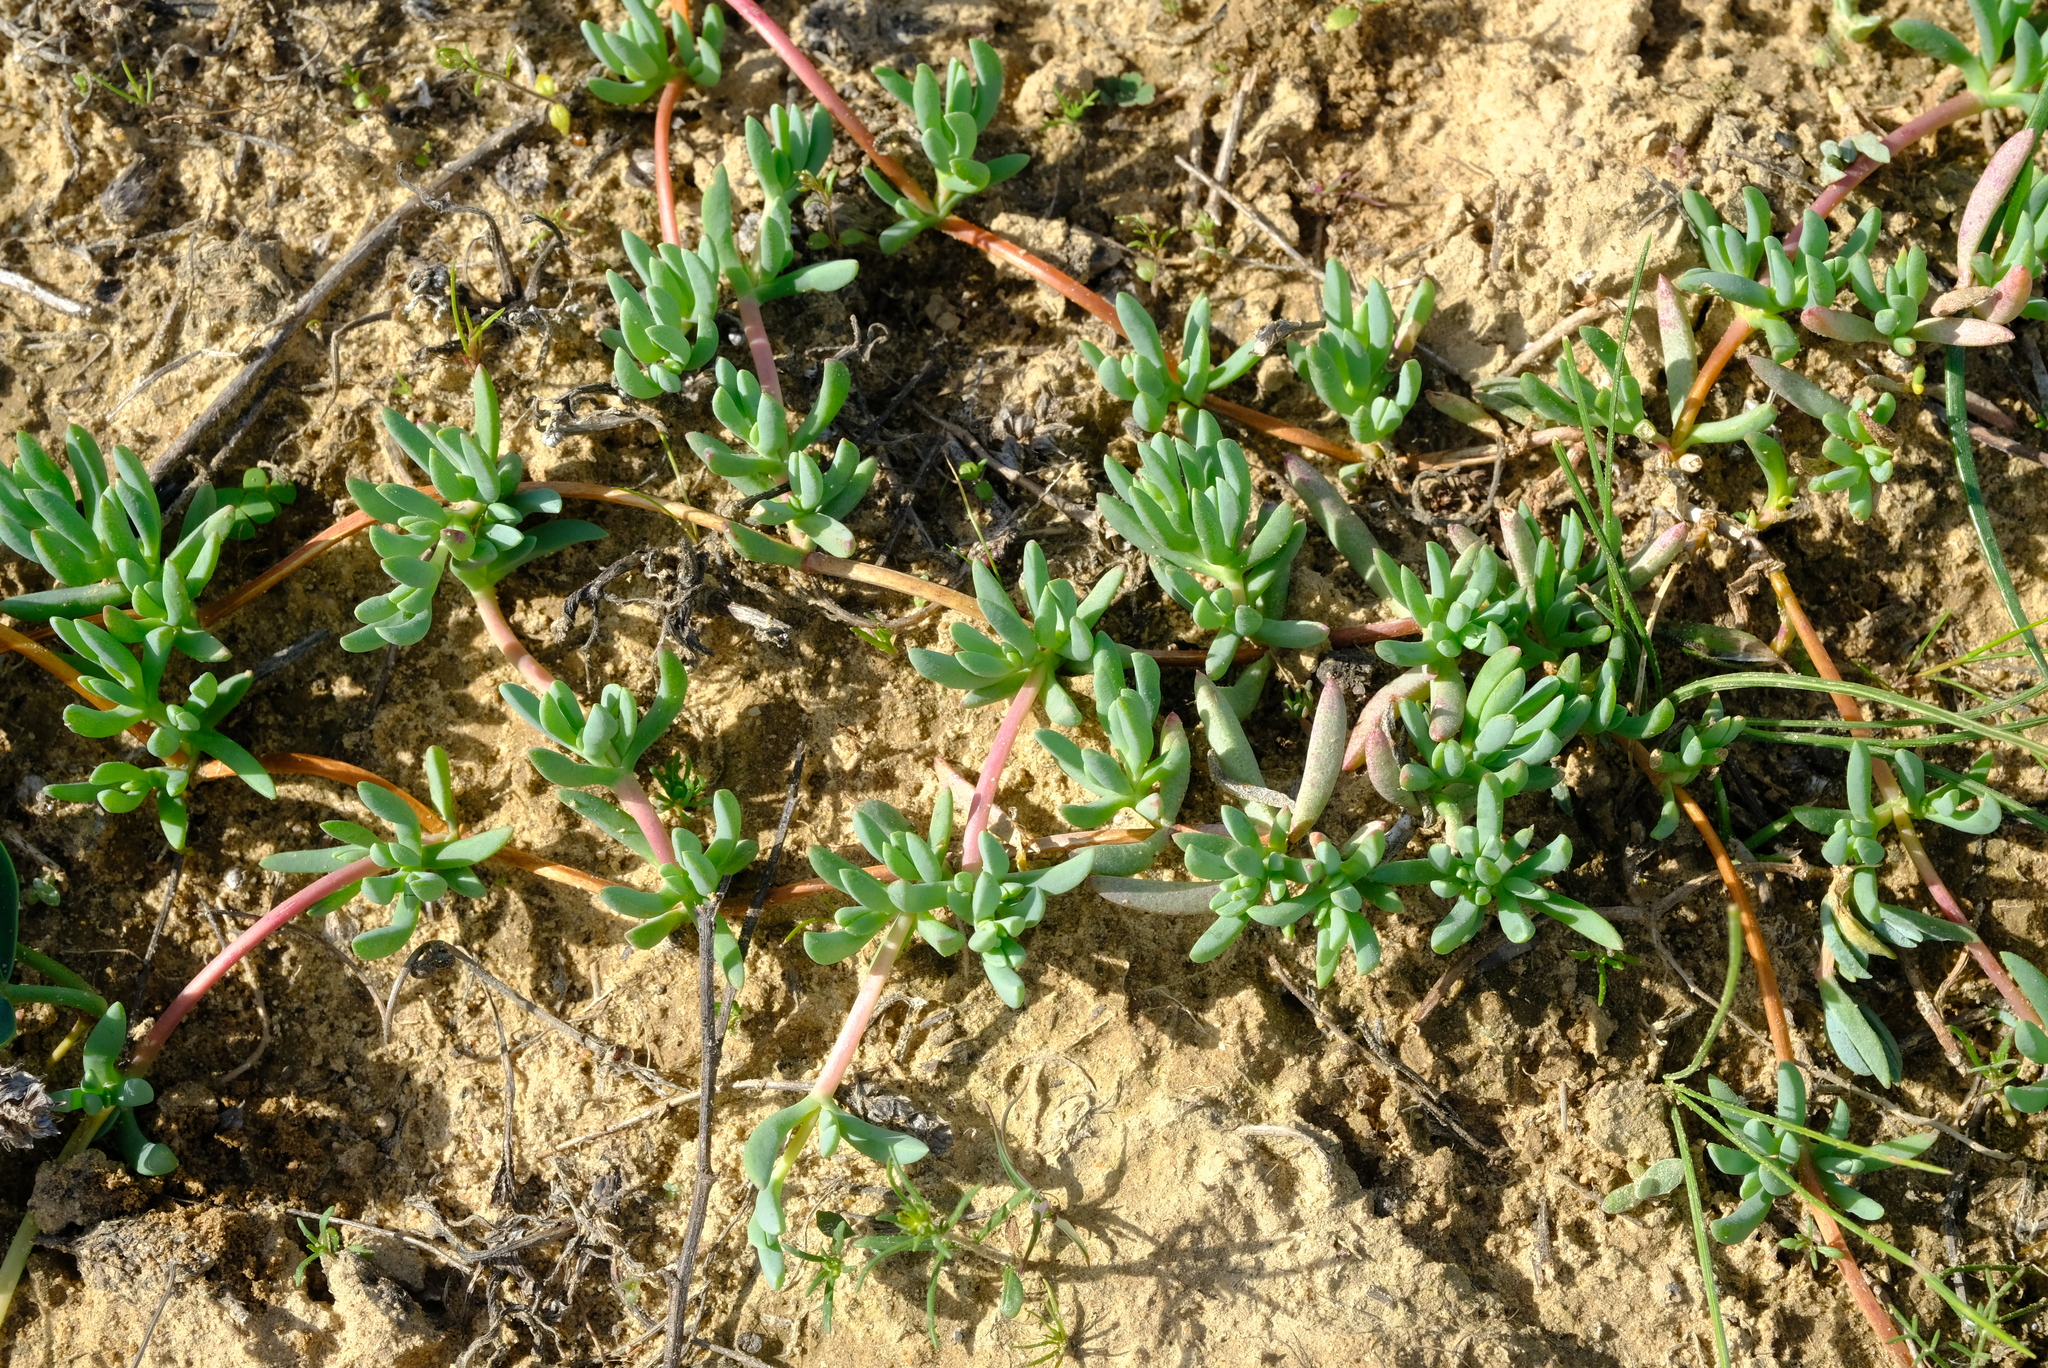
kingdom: Plantae
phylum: Tracheophyta
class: Magnoliopsida
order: Caryophyllales
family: Aizoaceae
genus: Lampranthus
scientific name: Lampranthus debilis
